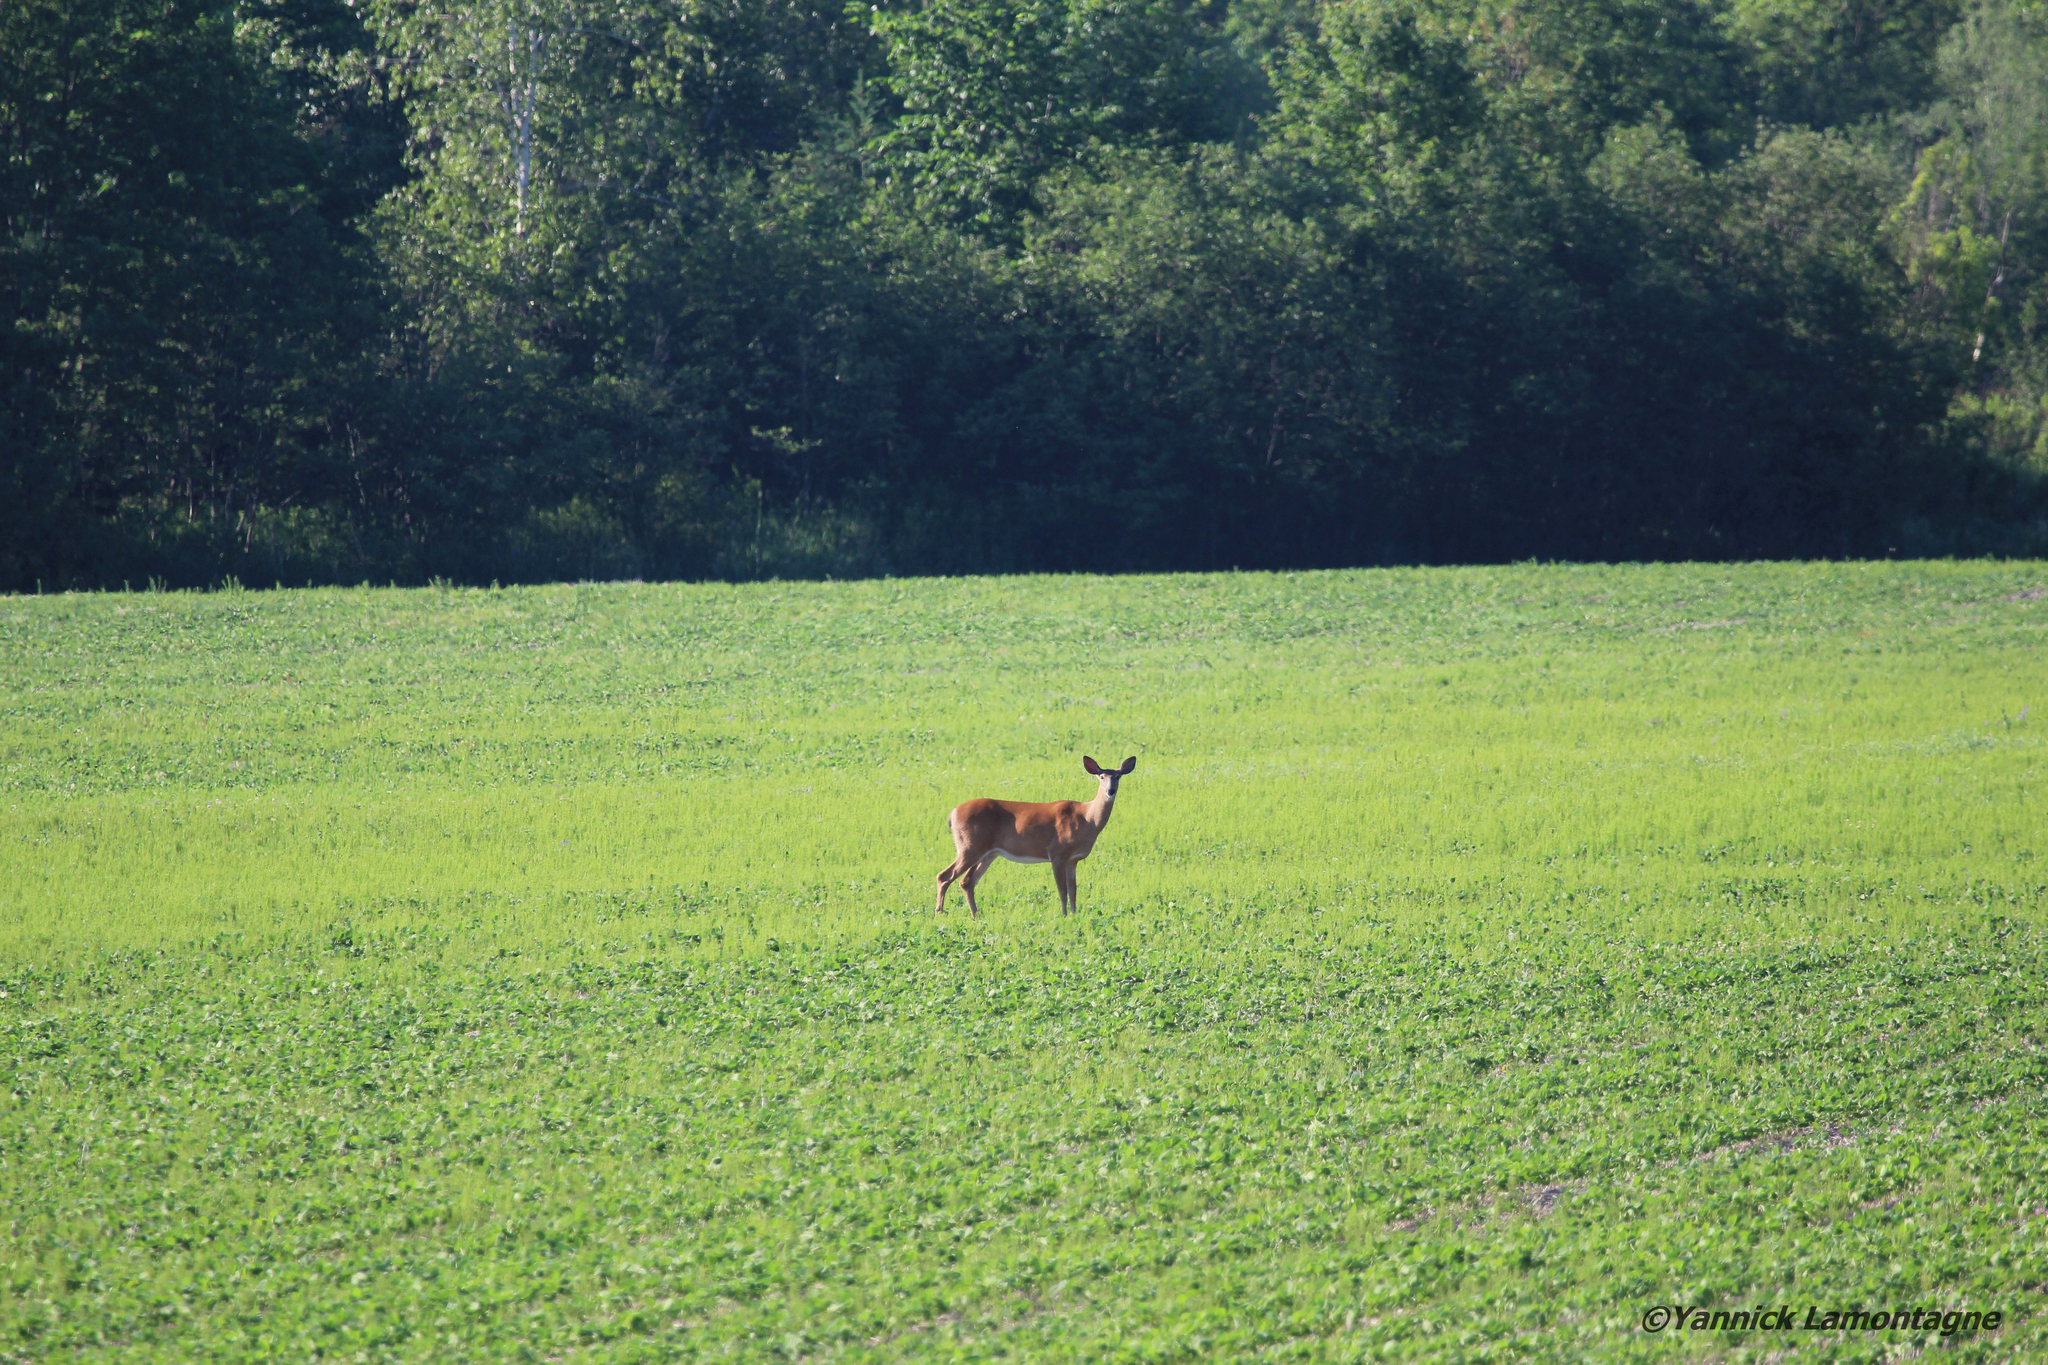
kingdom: Animalia
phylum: Chordata
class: Mammalia
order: Artiodactyla
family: Cervidae
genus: Odocoileus
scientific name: Odocoileus virginianus
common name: White-tailed deer
